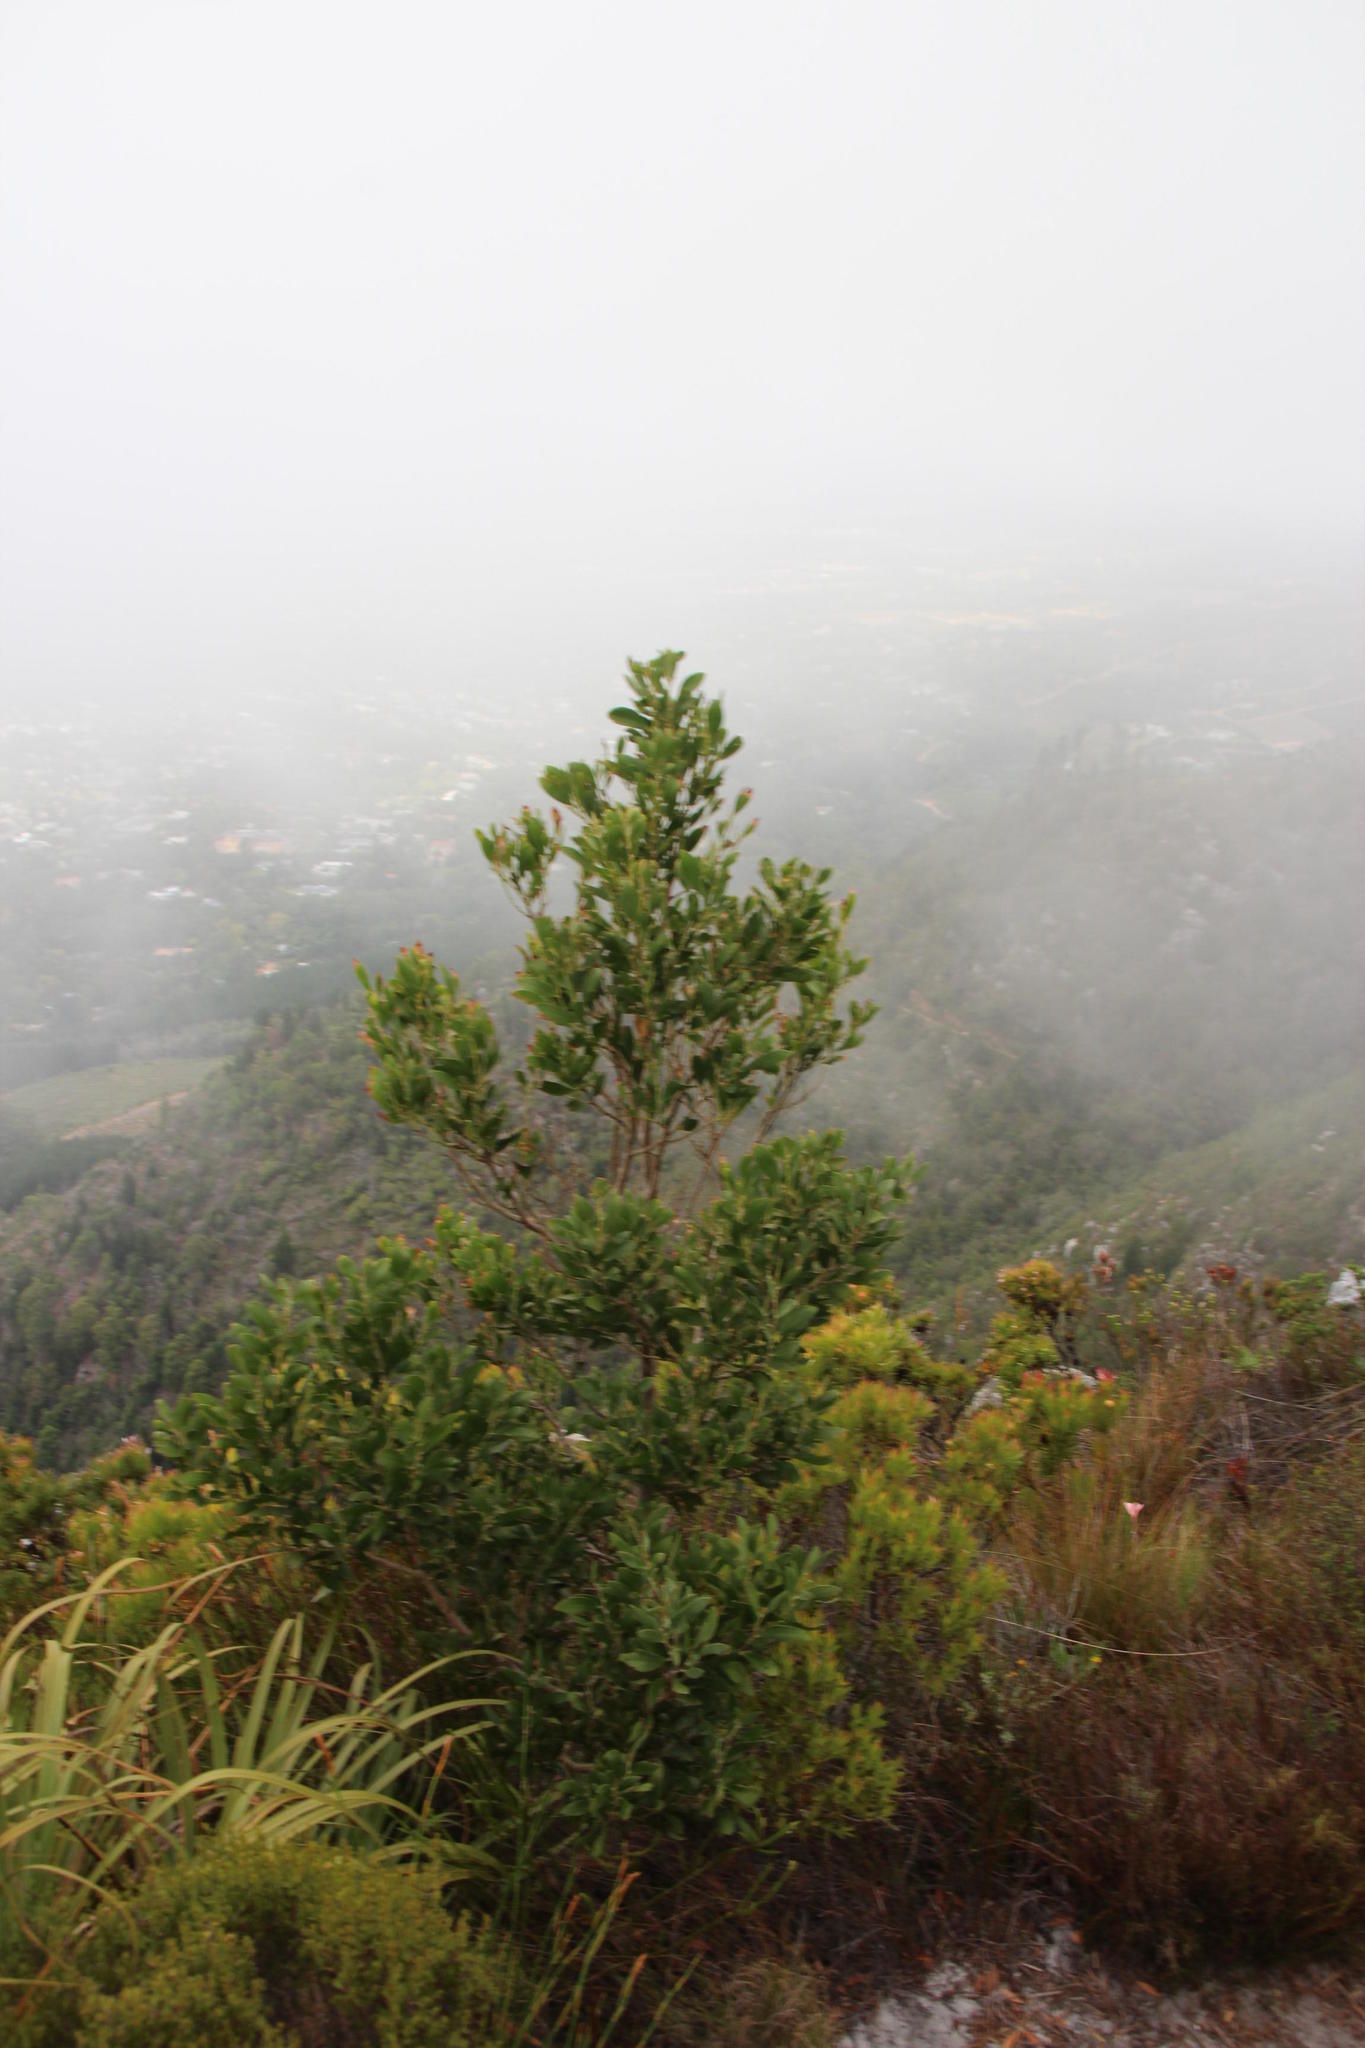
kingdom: Plantae
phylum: Tracheophyta
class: Magnoliopsida
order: Fabales
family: Fabaceae
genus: Acacia
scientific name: Acacia melanoxylon
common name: Blackwood
